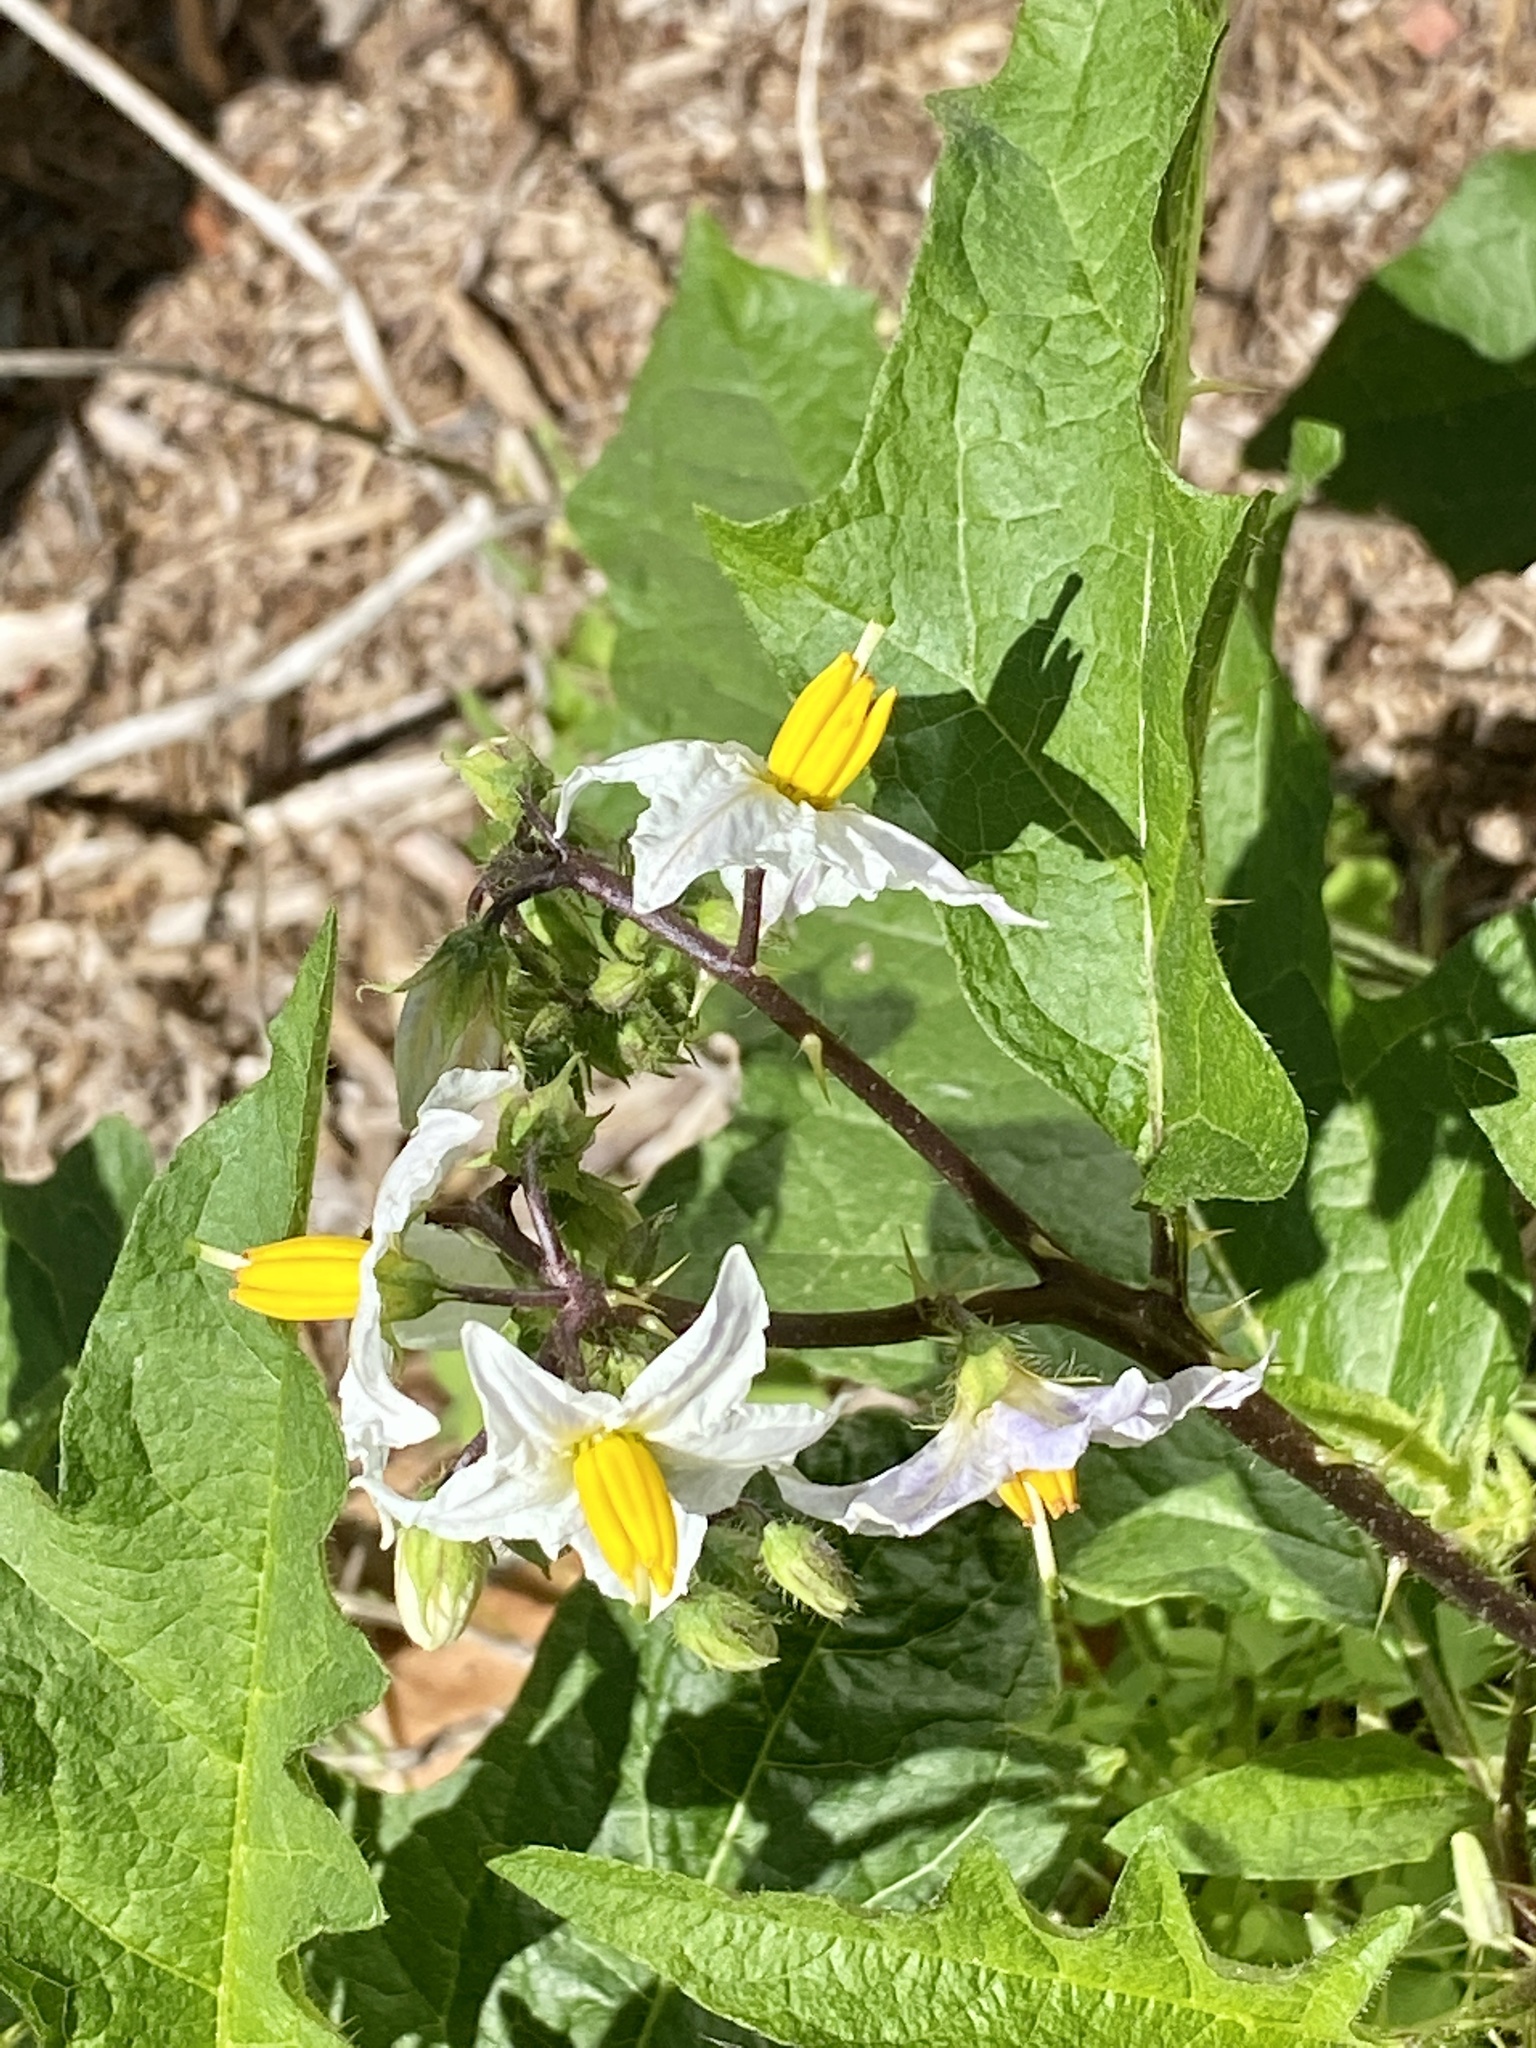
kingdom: Plantae
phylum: Tracheophyta
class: Magnoliopsida
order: Solanales
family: Solanaceae
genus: Solanum
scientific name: Solanum carolinense
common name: Horse-nettle
